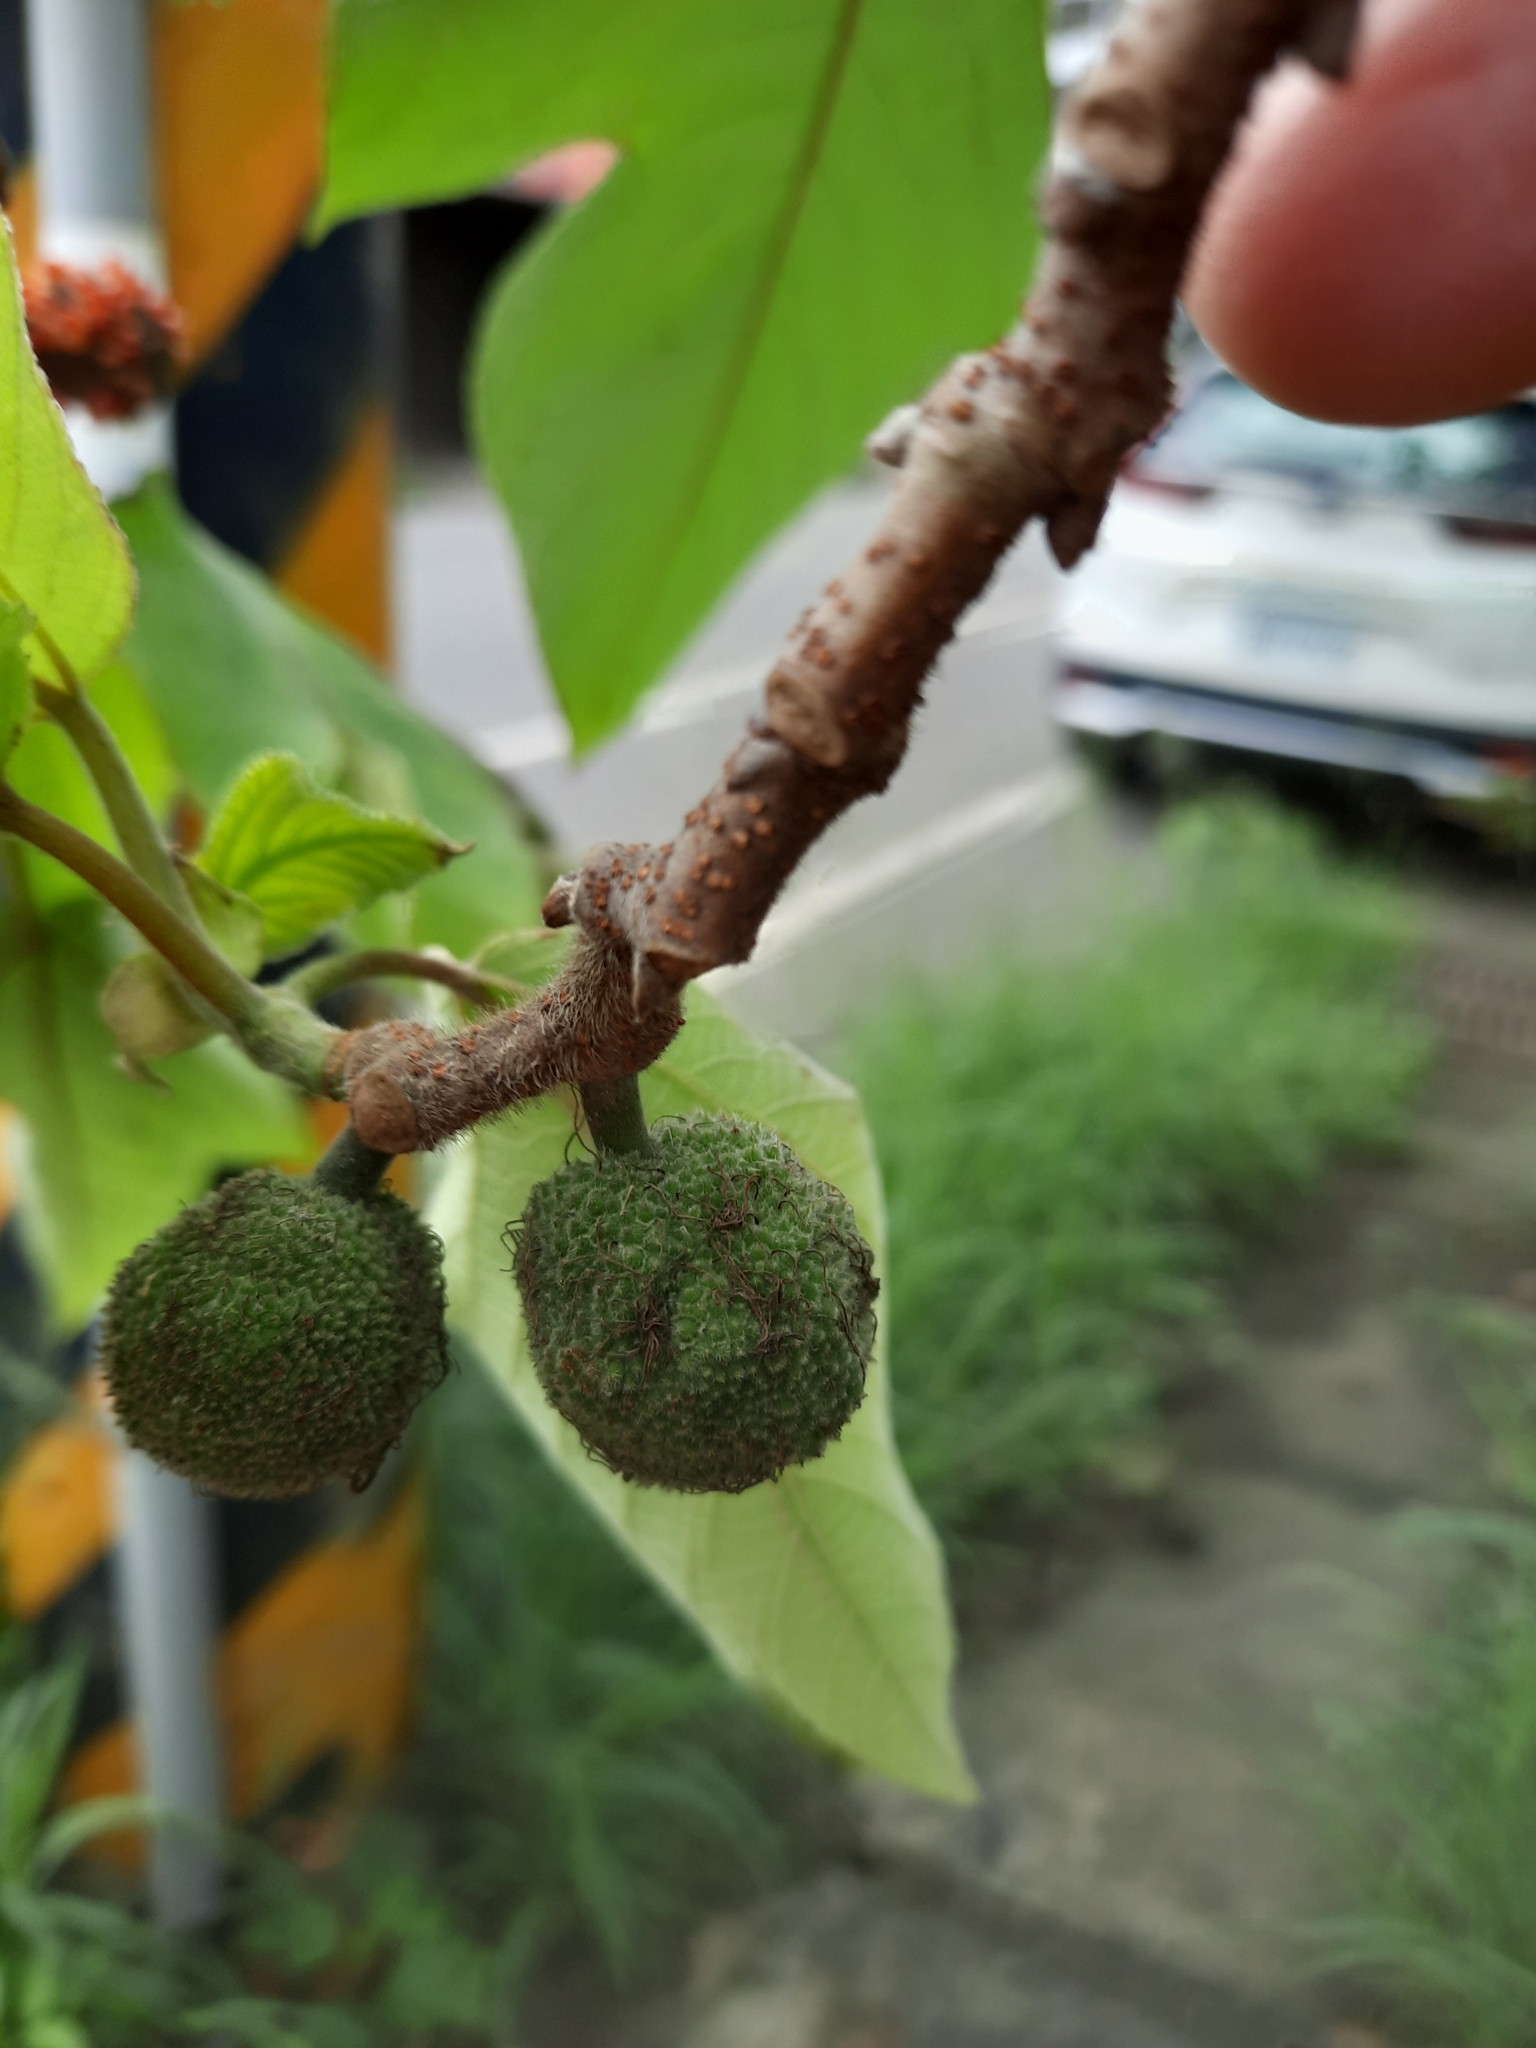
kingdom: Plantae
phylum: Tracheophyta
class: Magnoliopsida
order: Rosales
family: Moraceae
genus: Broussonetia
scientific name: Broussonetia papyrifera
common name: Paper mulberry
